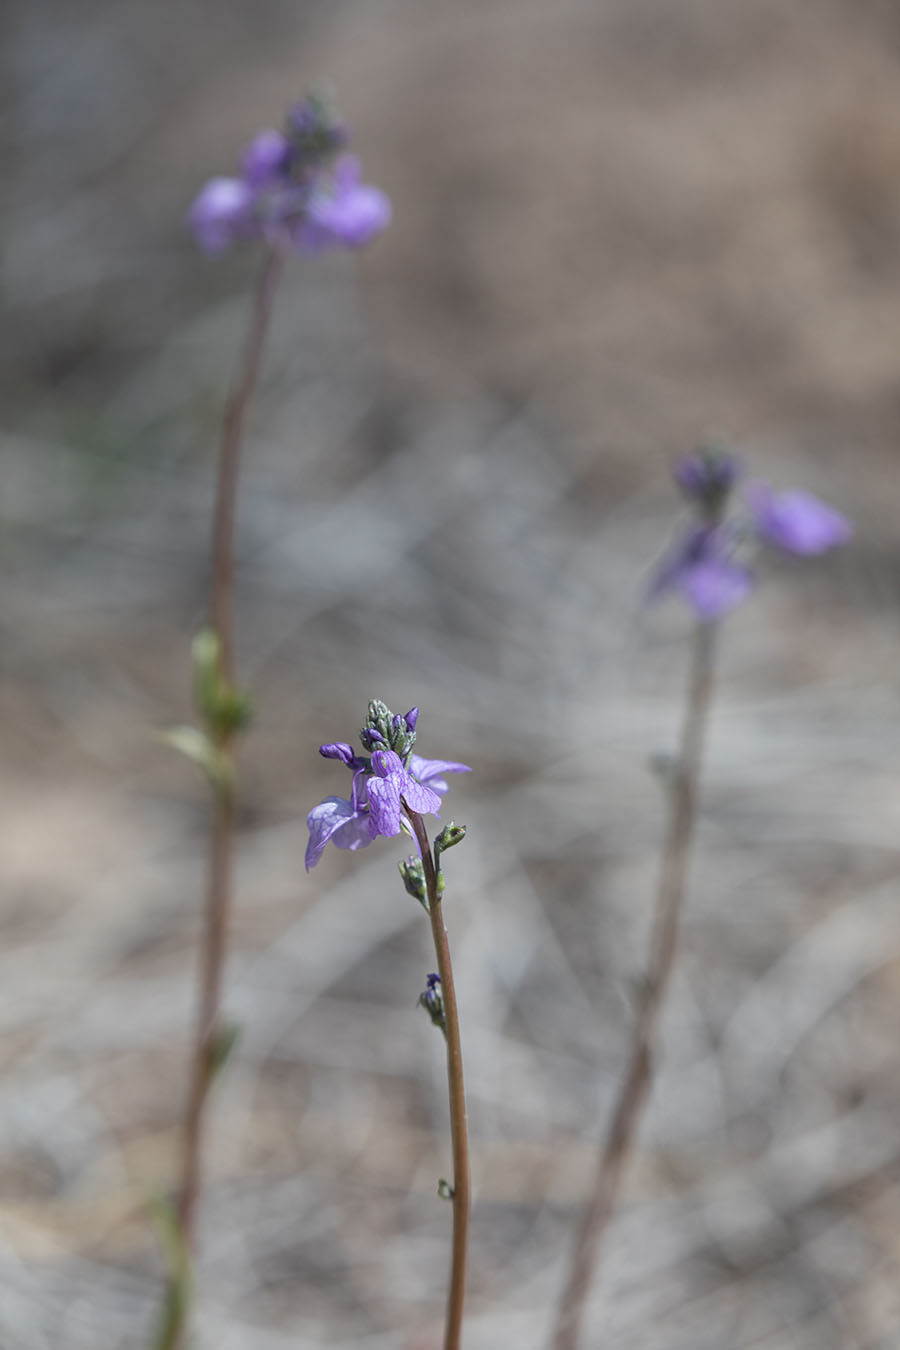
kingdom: Plantae
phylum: Tracheophyta
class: Magnoliopsida
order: Lamiales
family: Plantaginaceae
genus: Nuttallanthus
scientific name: Nuttallanthus texanus
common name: Texas toadflax
